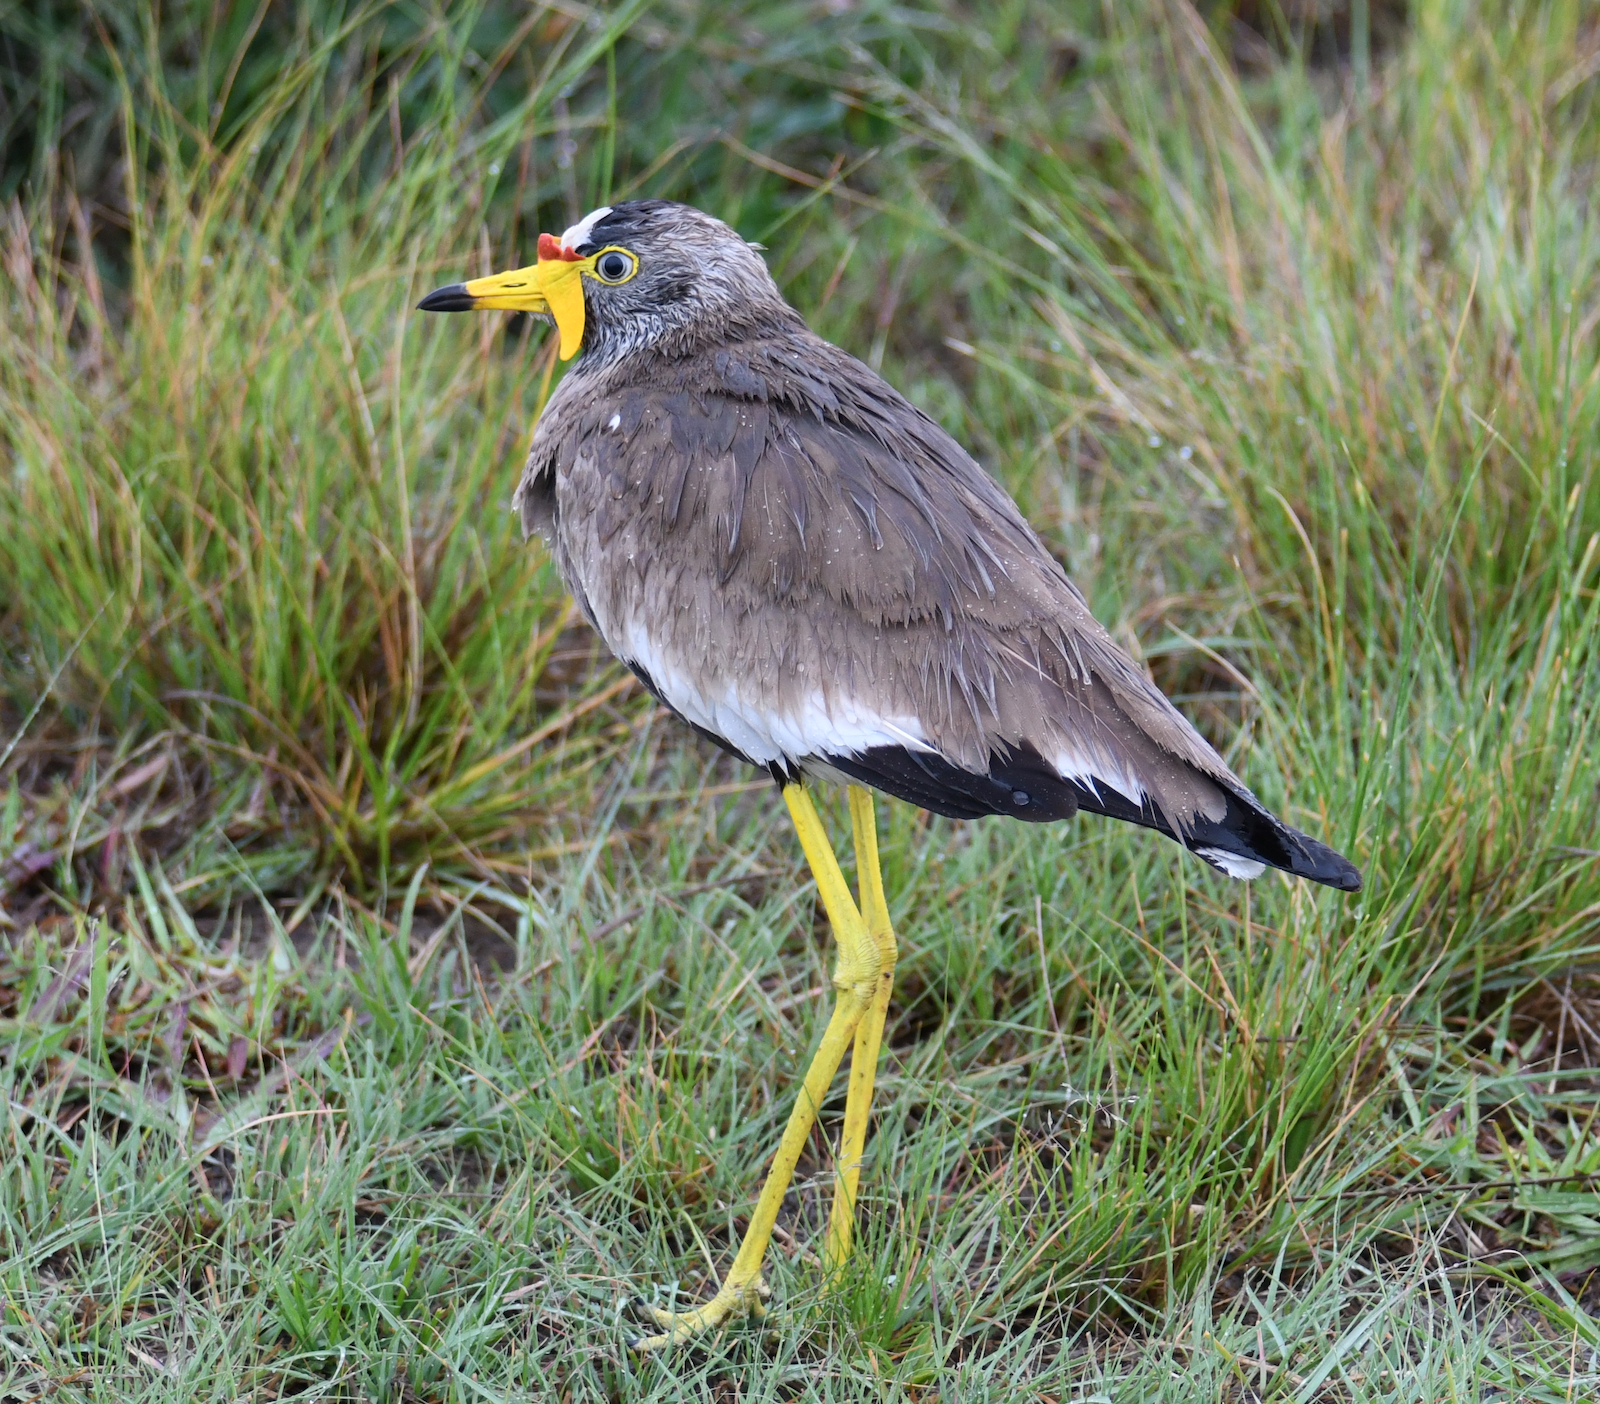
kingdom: Animalia
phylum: Chordata
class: Aves
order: Charadriiformes
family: Charadriidae
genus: Vanellus
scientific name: Vanellus senegallus
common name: African wattled lapwing
